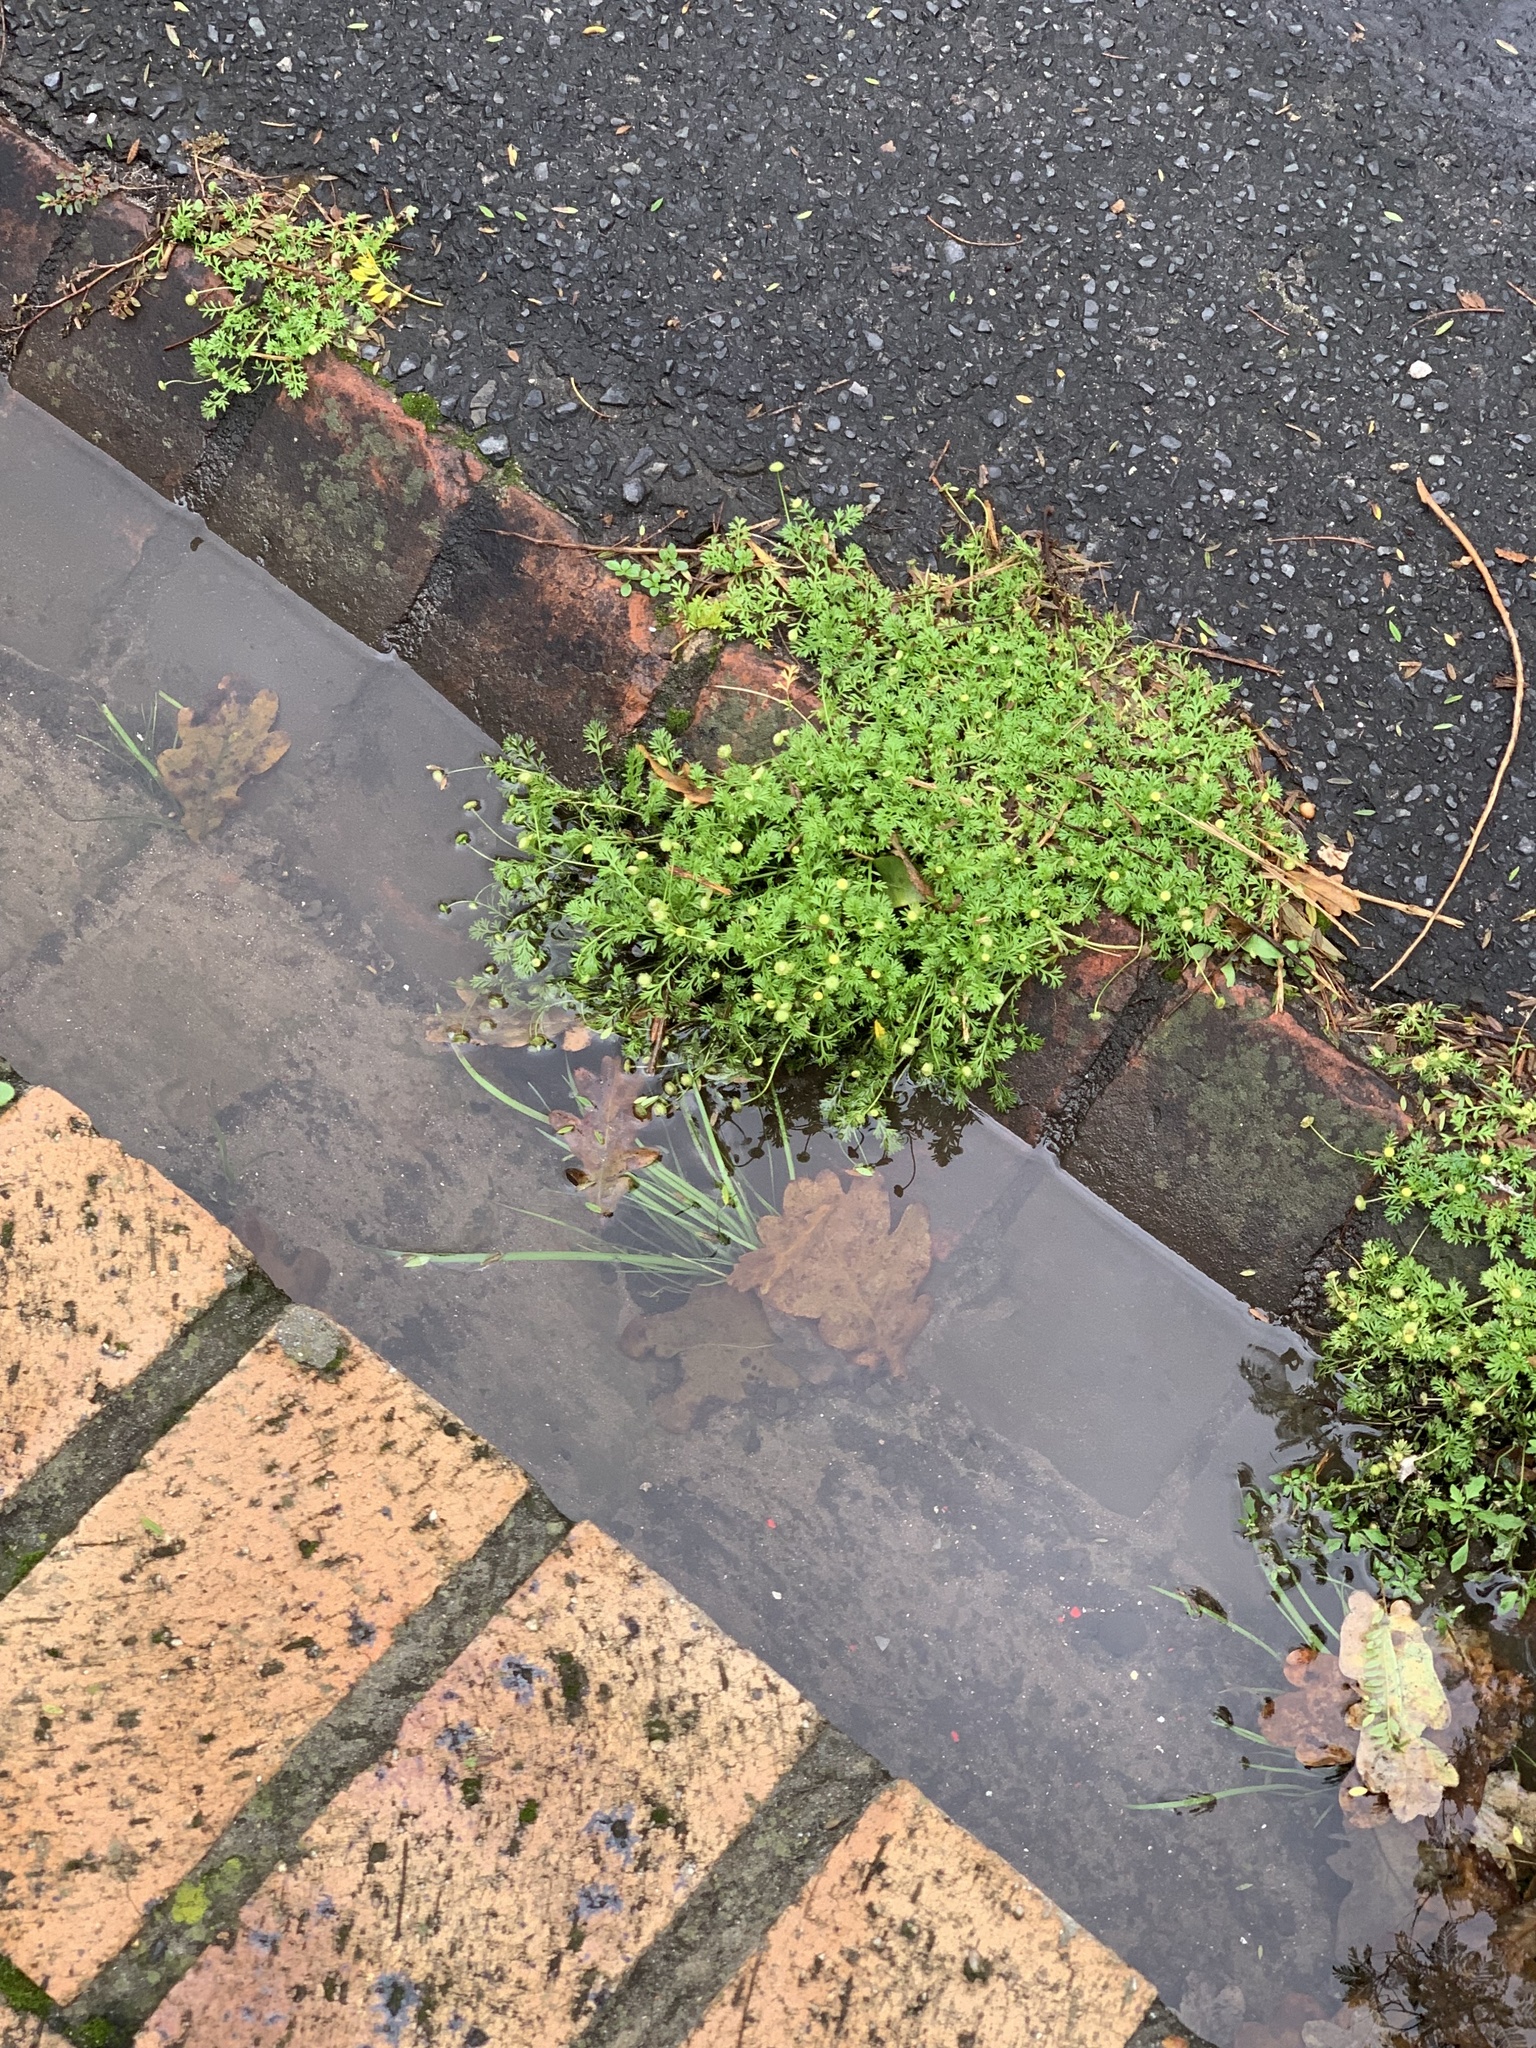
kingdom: Plantae
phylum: Tracheophyta
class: Magnoliopsida
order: Asterales
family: Asteraceae
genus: Cotula
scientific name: Cotula australis
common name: Australian waterbuttons
